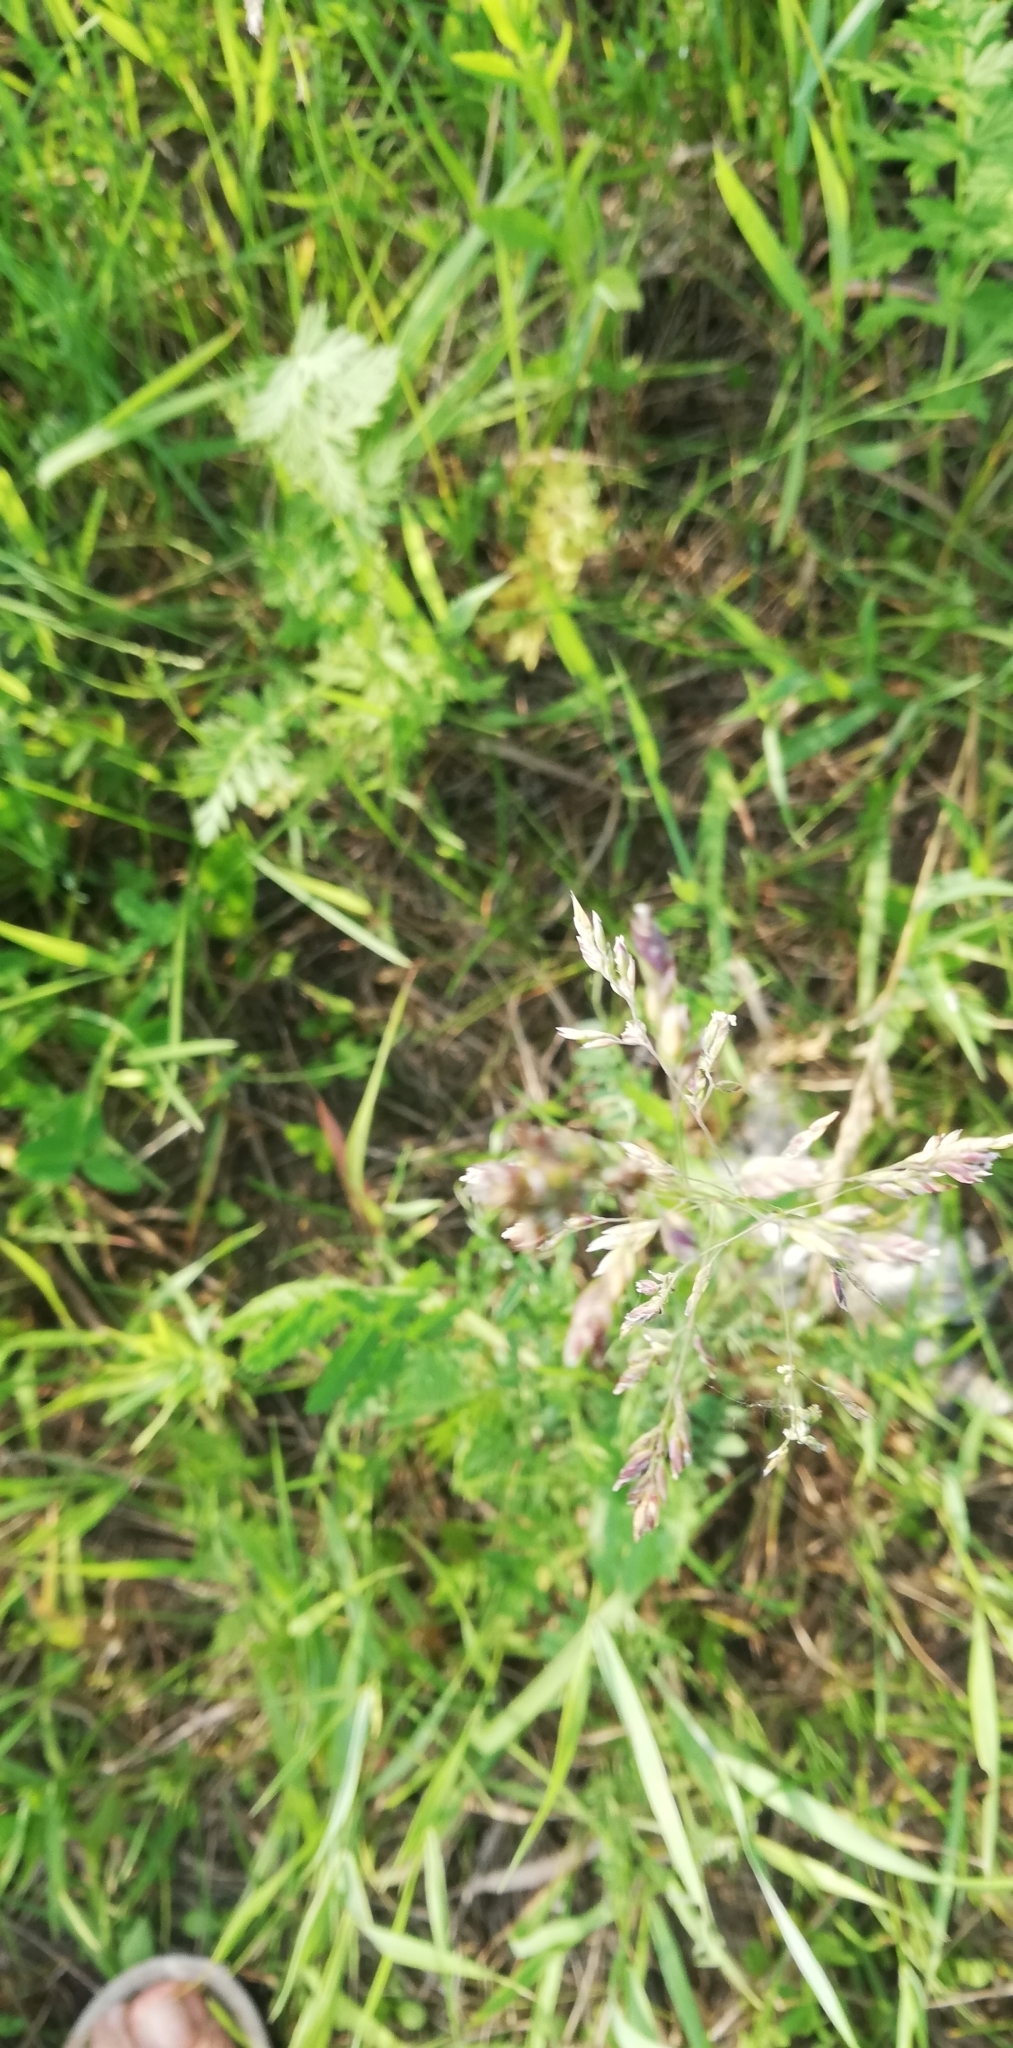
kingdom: Plantae
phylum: Tracheophyta
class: Liliopsida
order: Poales
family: Poaceae
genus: Poa
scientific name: Poa pratensis
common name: Kentucky bluegrass
